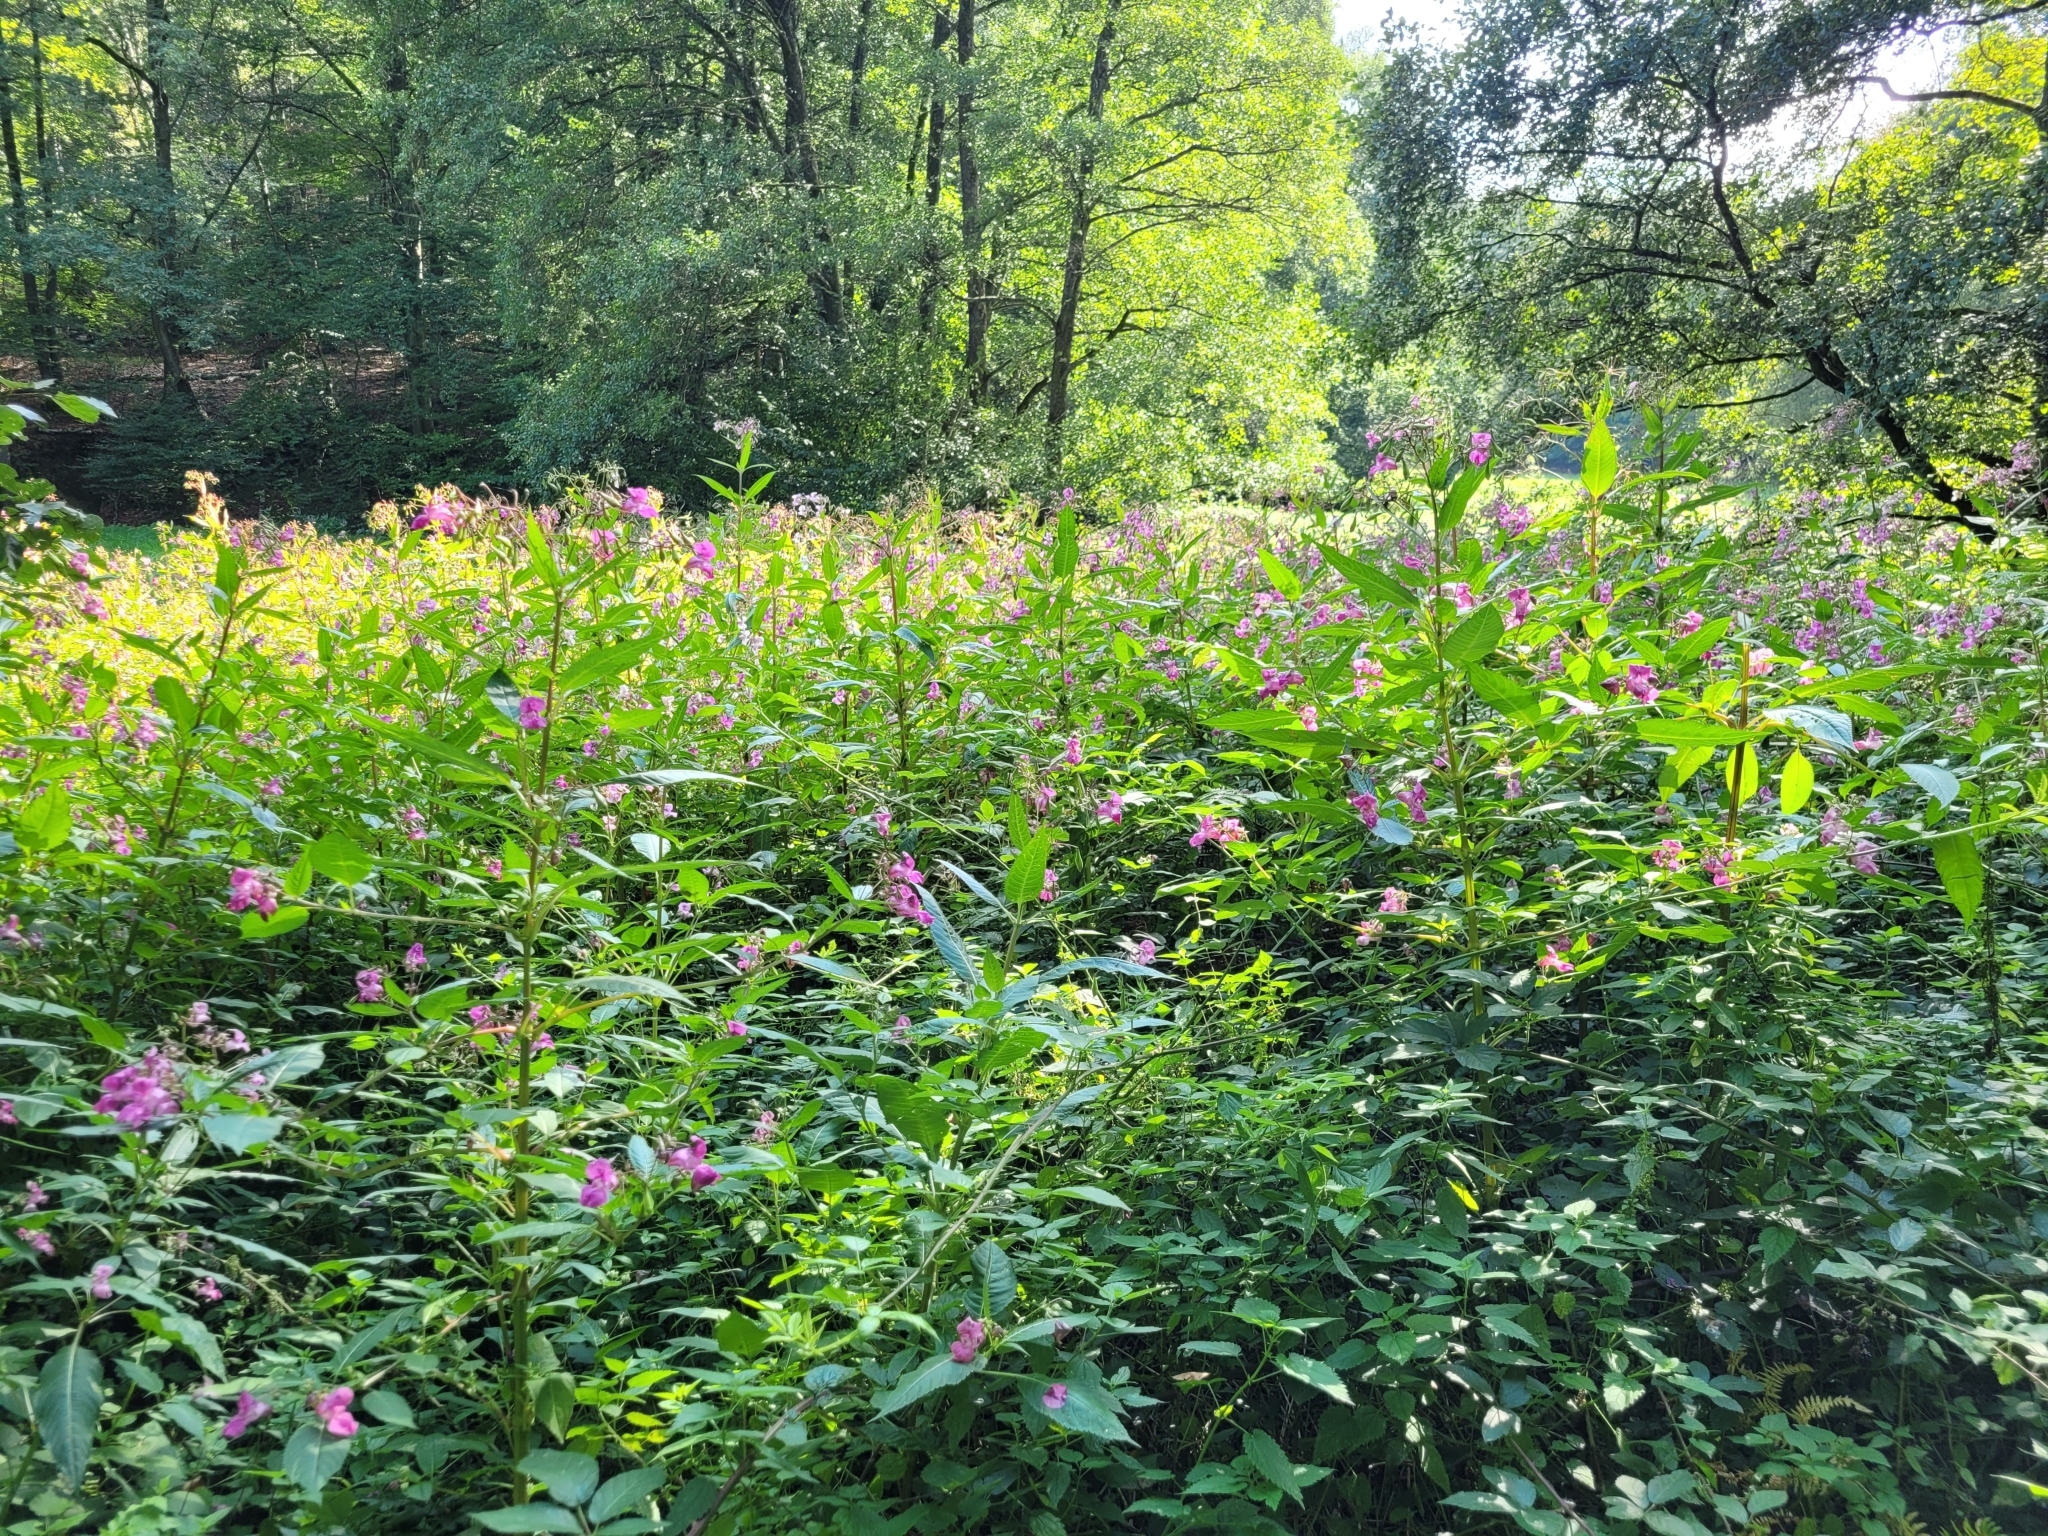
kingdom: Plantae
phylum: Tracheophyta
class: Magnoliopsida
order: Ericales
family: Balsaminaceae
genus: Impatiens
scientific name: Impatiens glandulifera
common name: Himalayan balsam
